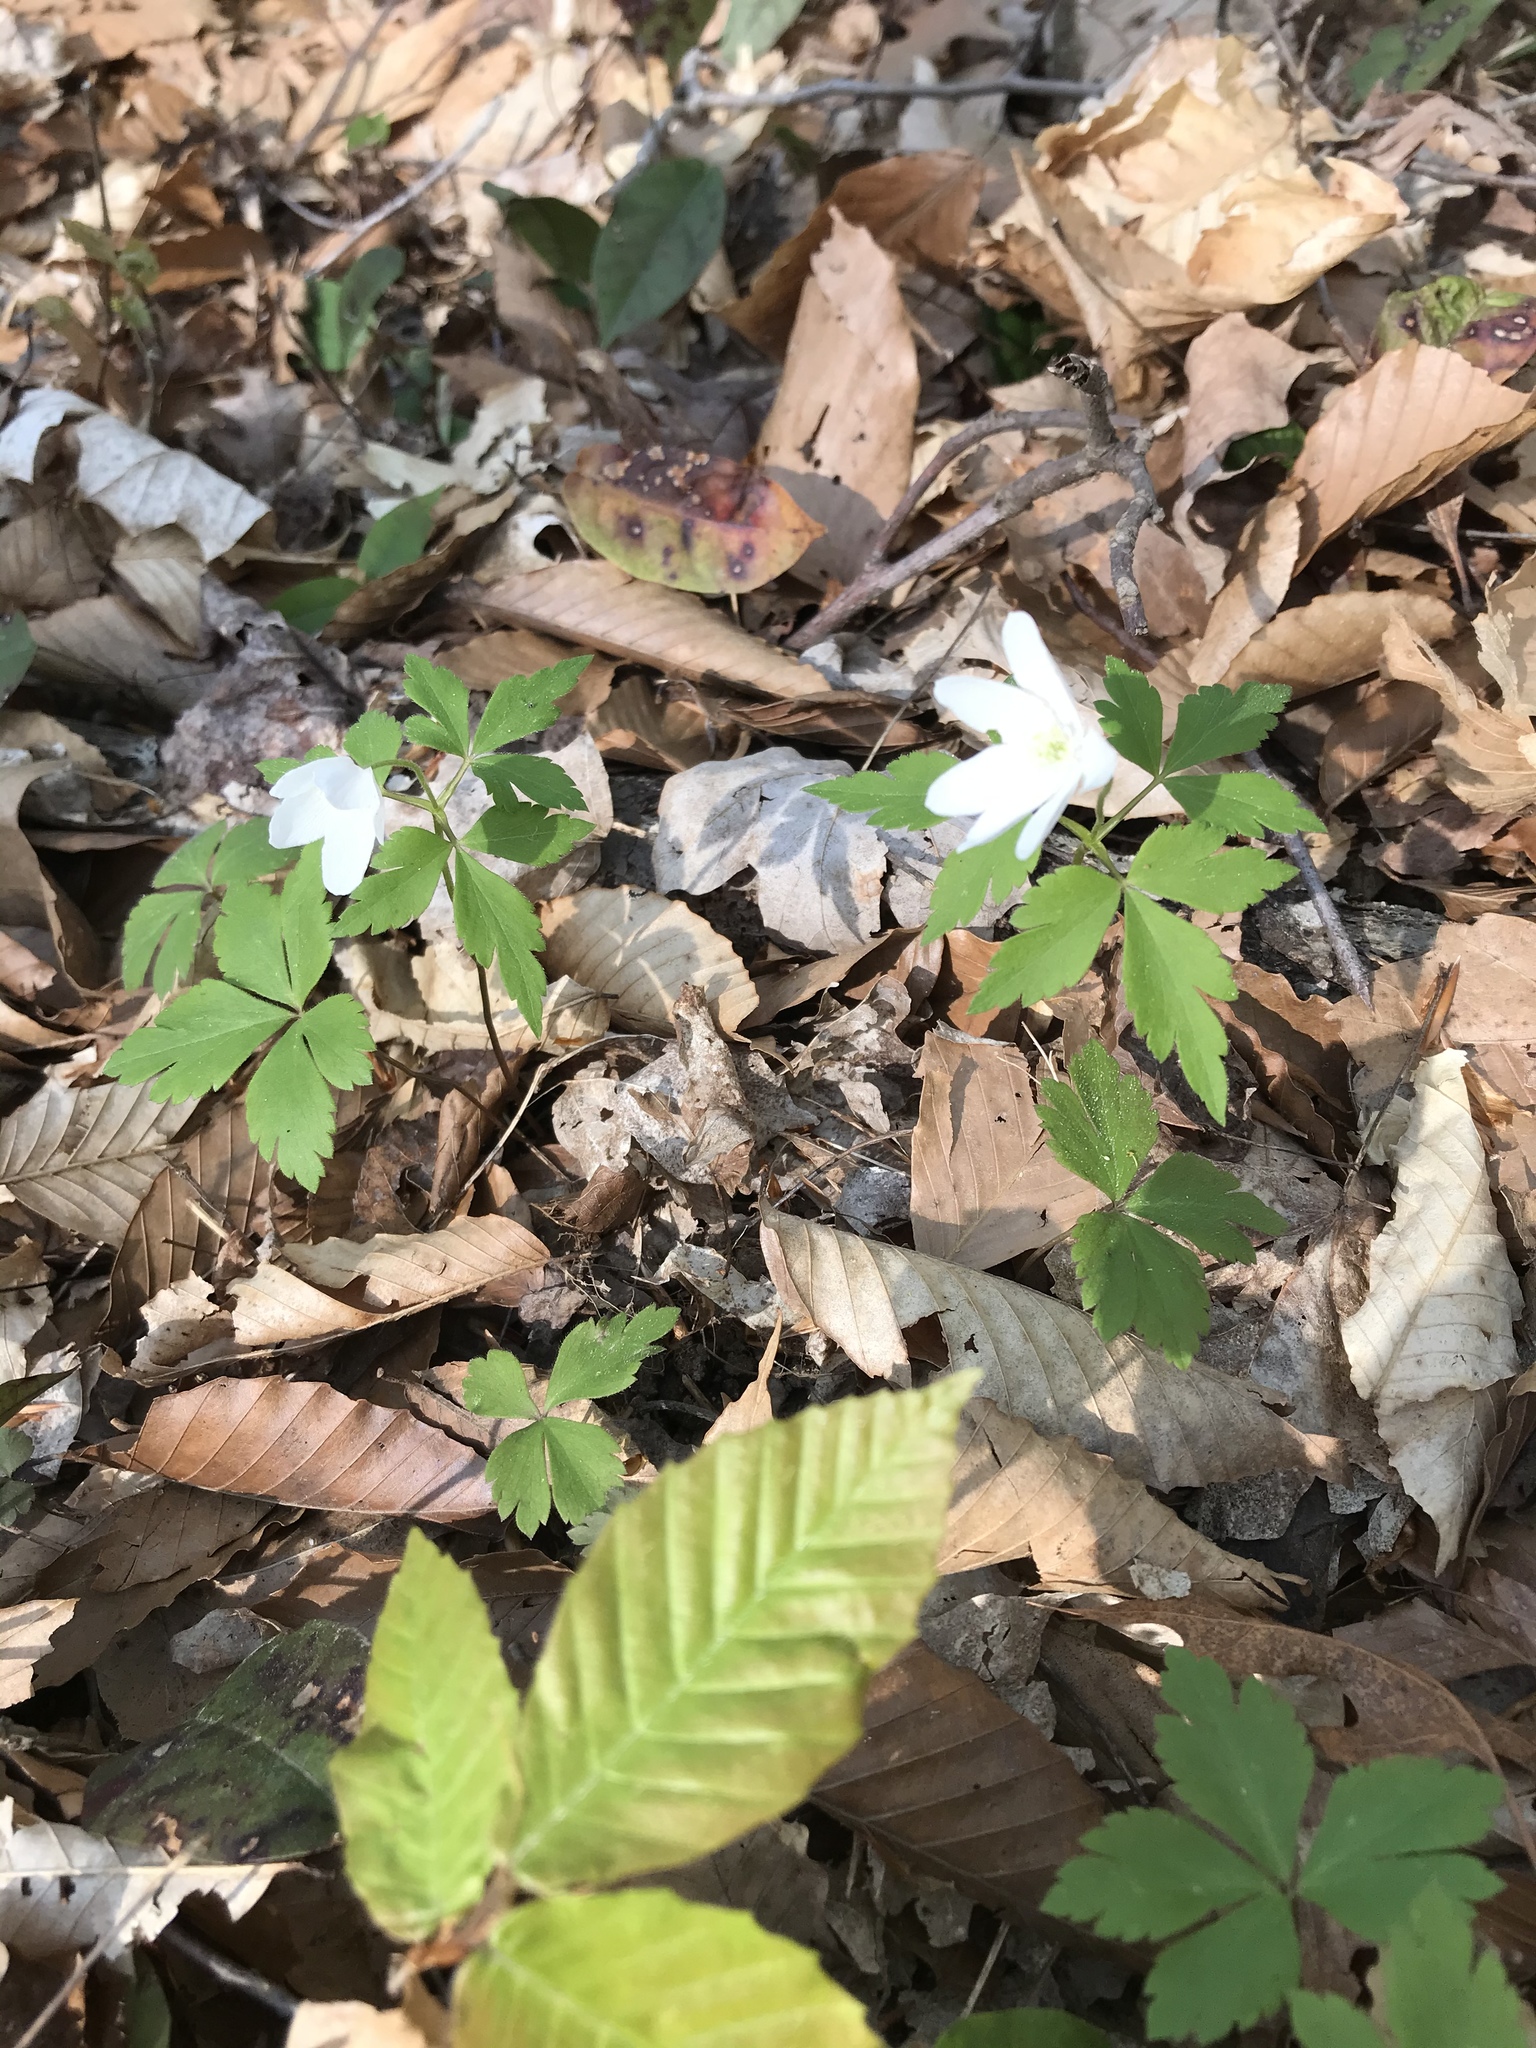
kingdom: Plantae
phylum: Tracheophyta
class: Magnoliopsida
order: Ranunculales
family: Ranunculaceae
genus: Anemone
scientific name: Anemone quinquefolia
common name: Wood anemone
